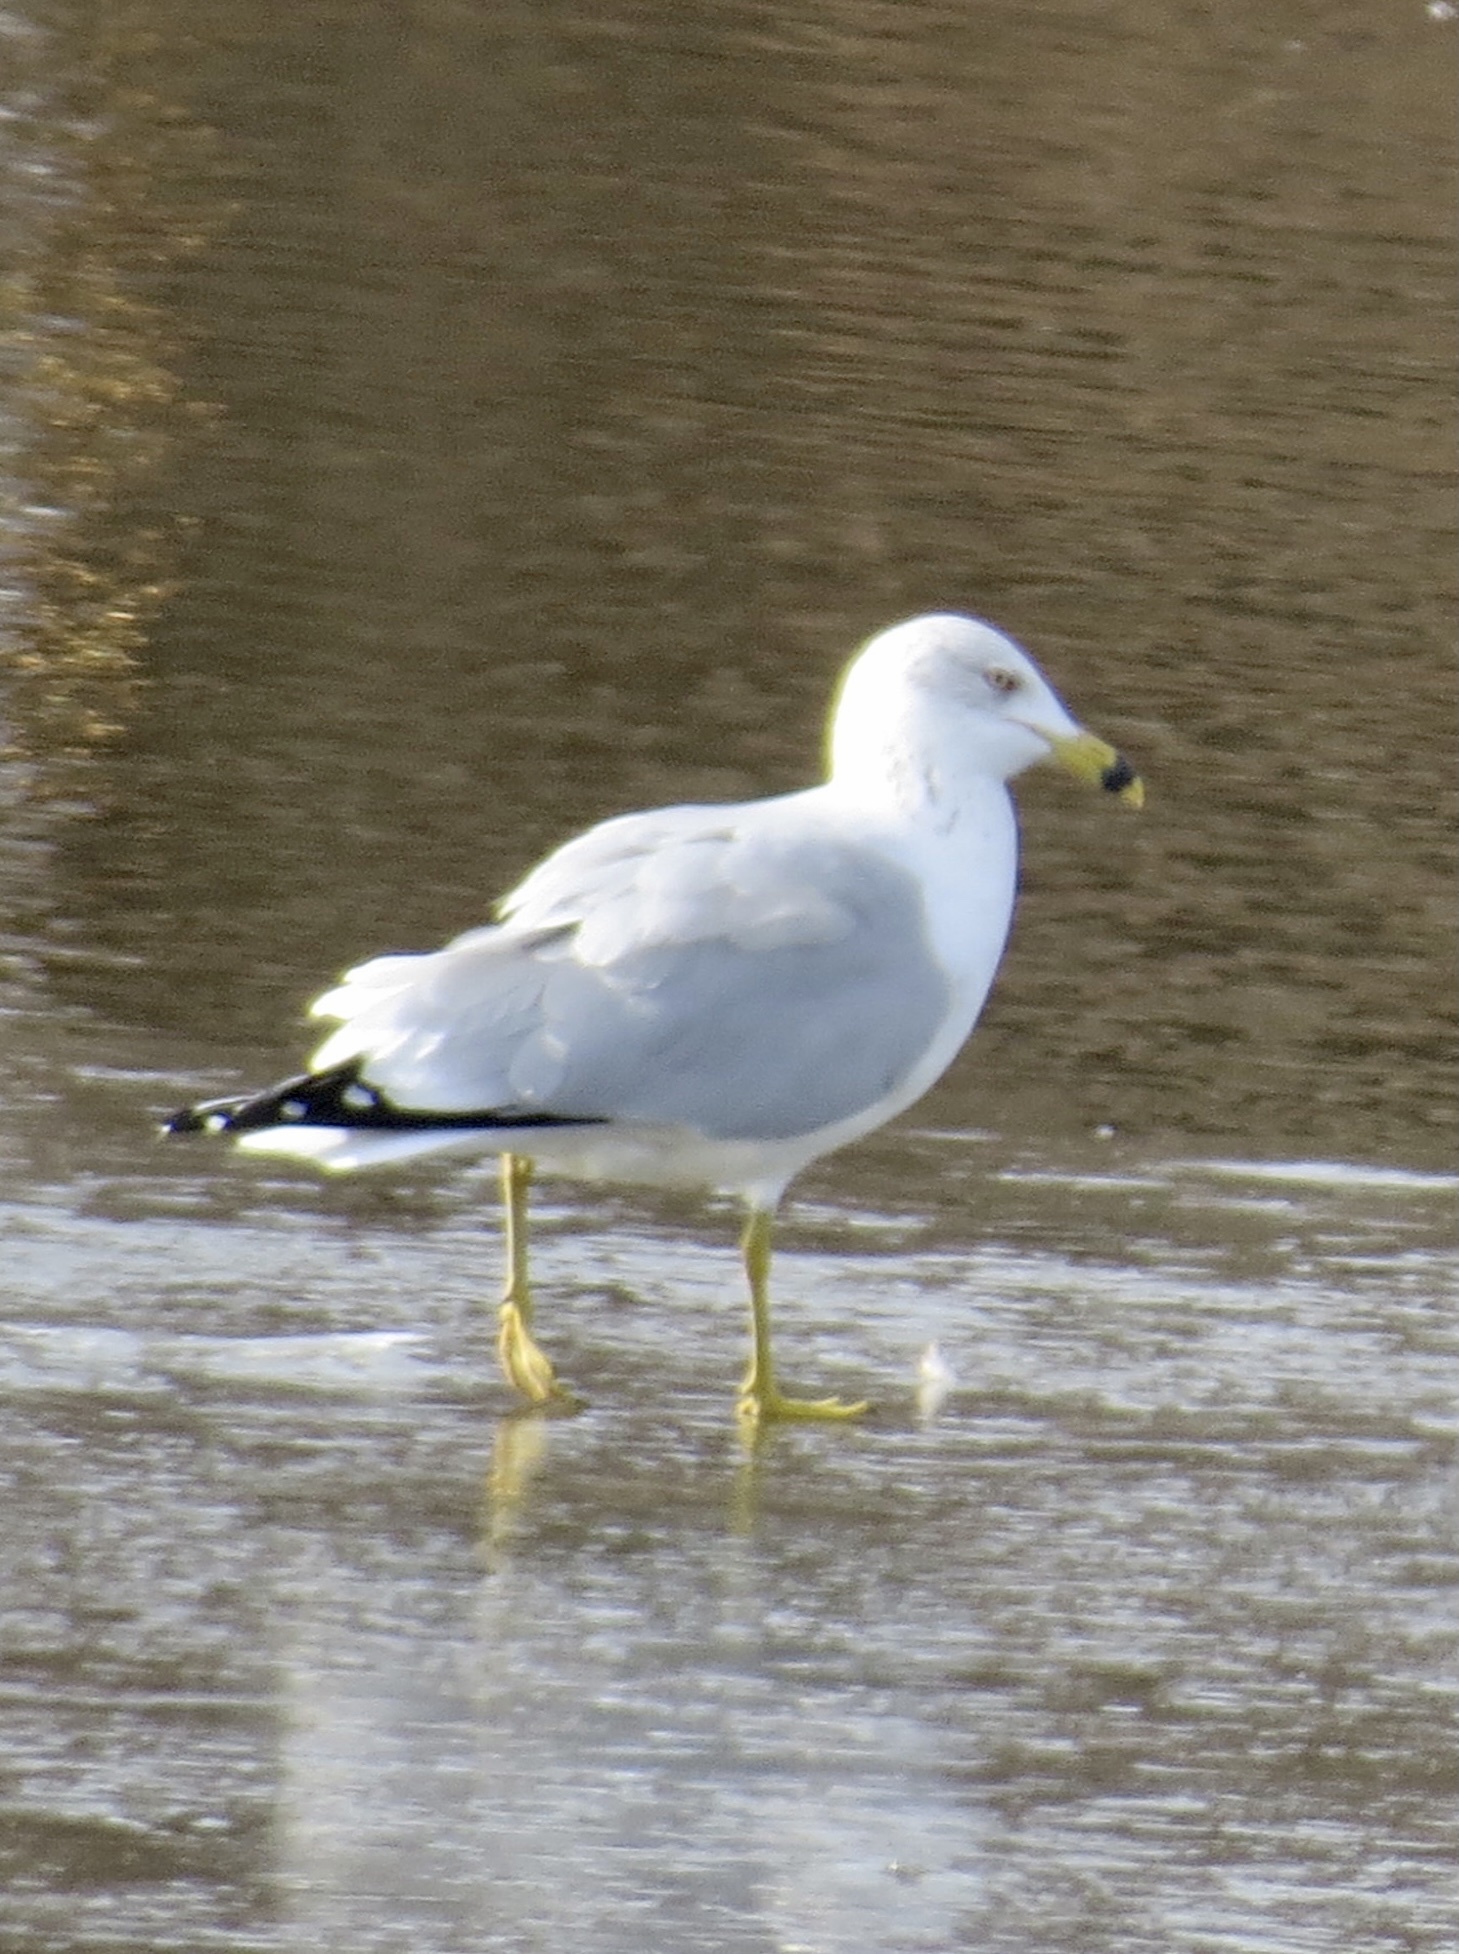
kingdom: Animalia
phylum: Chordata
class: Aves
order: Charadriiformes
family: Laridae
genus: Larus
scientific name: Larus delawarensis
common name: Ring-billed gull
